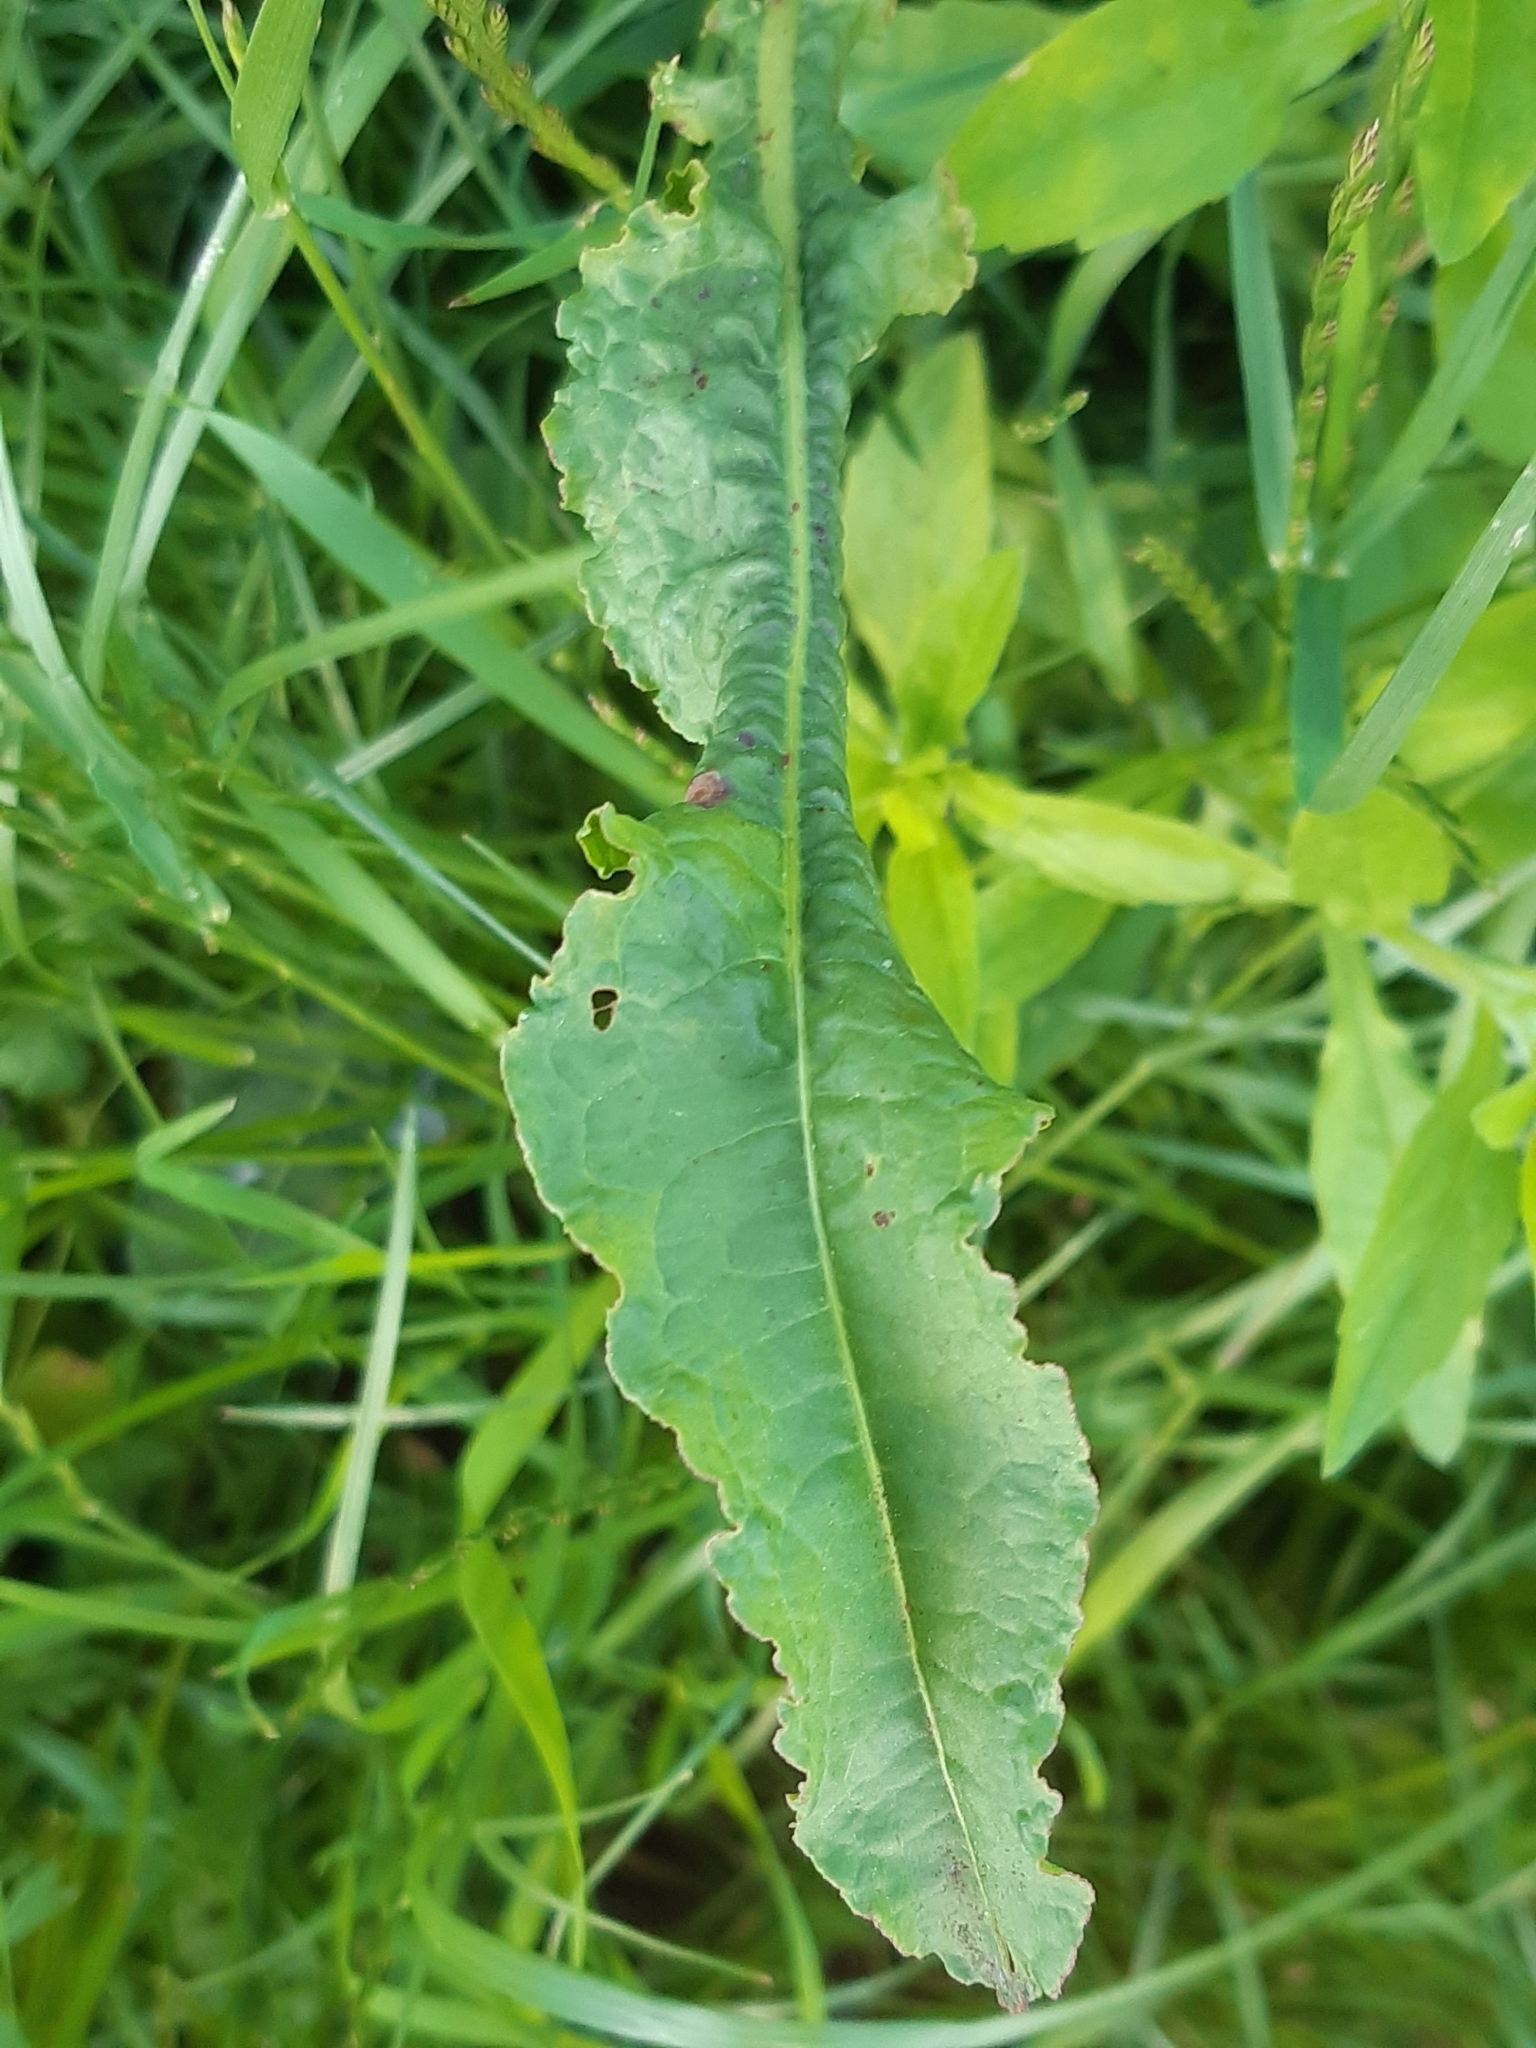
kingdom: Plantae
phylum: Tracheophyta
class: Magnoliopsida
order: Caryophyllales
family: Polygonaceae
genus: Rumex
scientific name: Rumex crispus
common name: Curled dock
